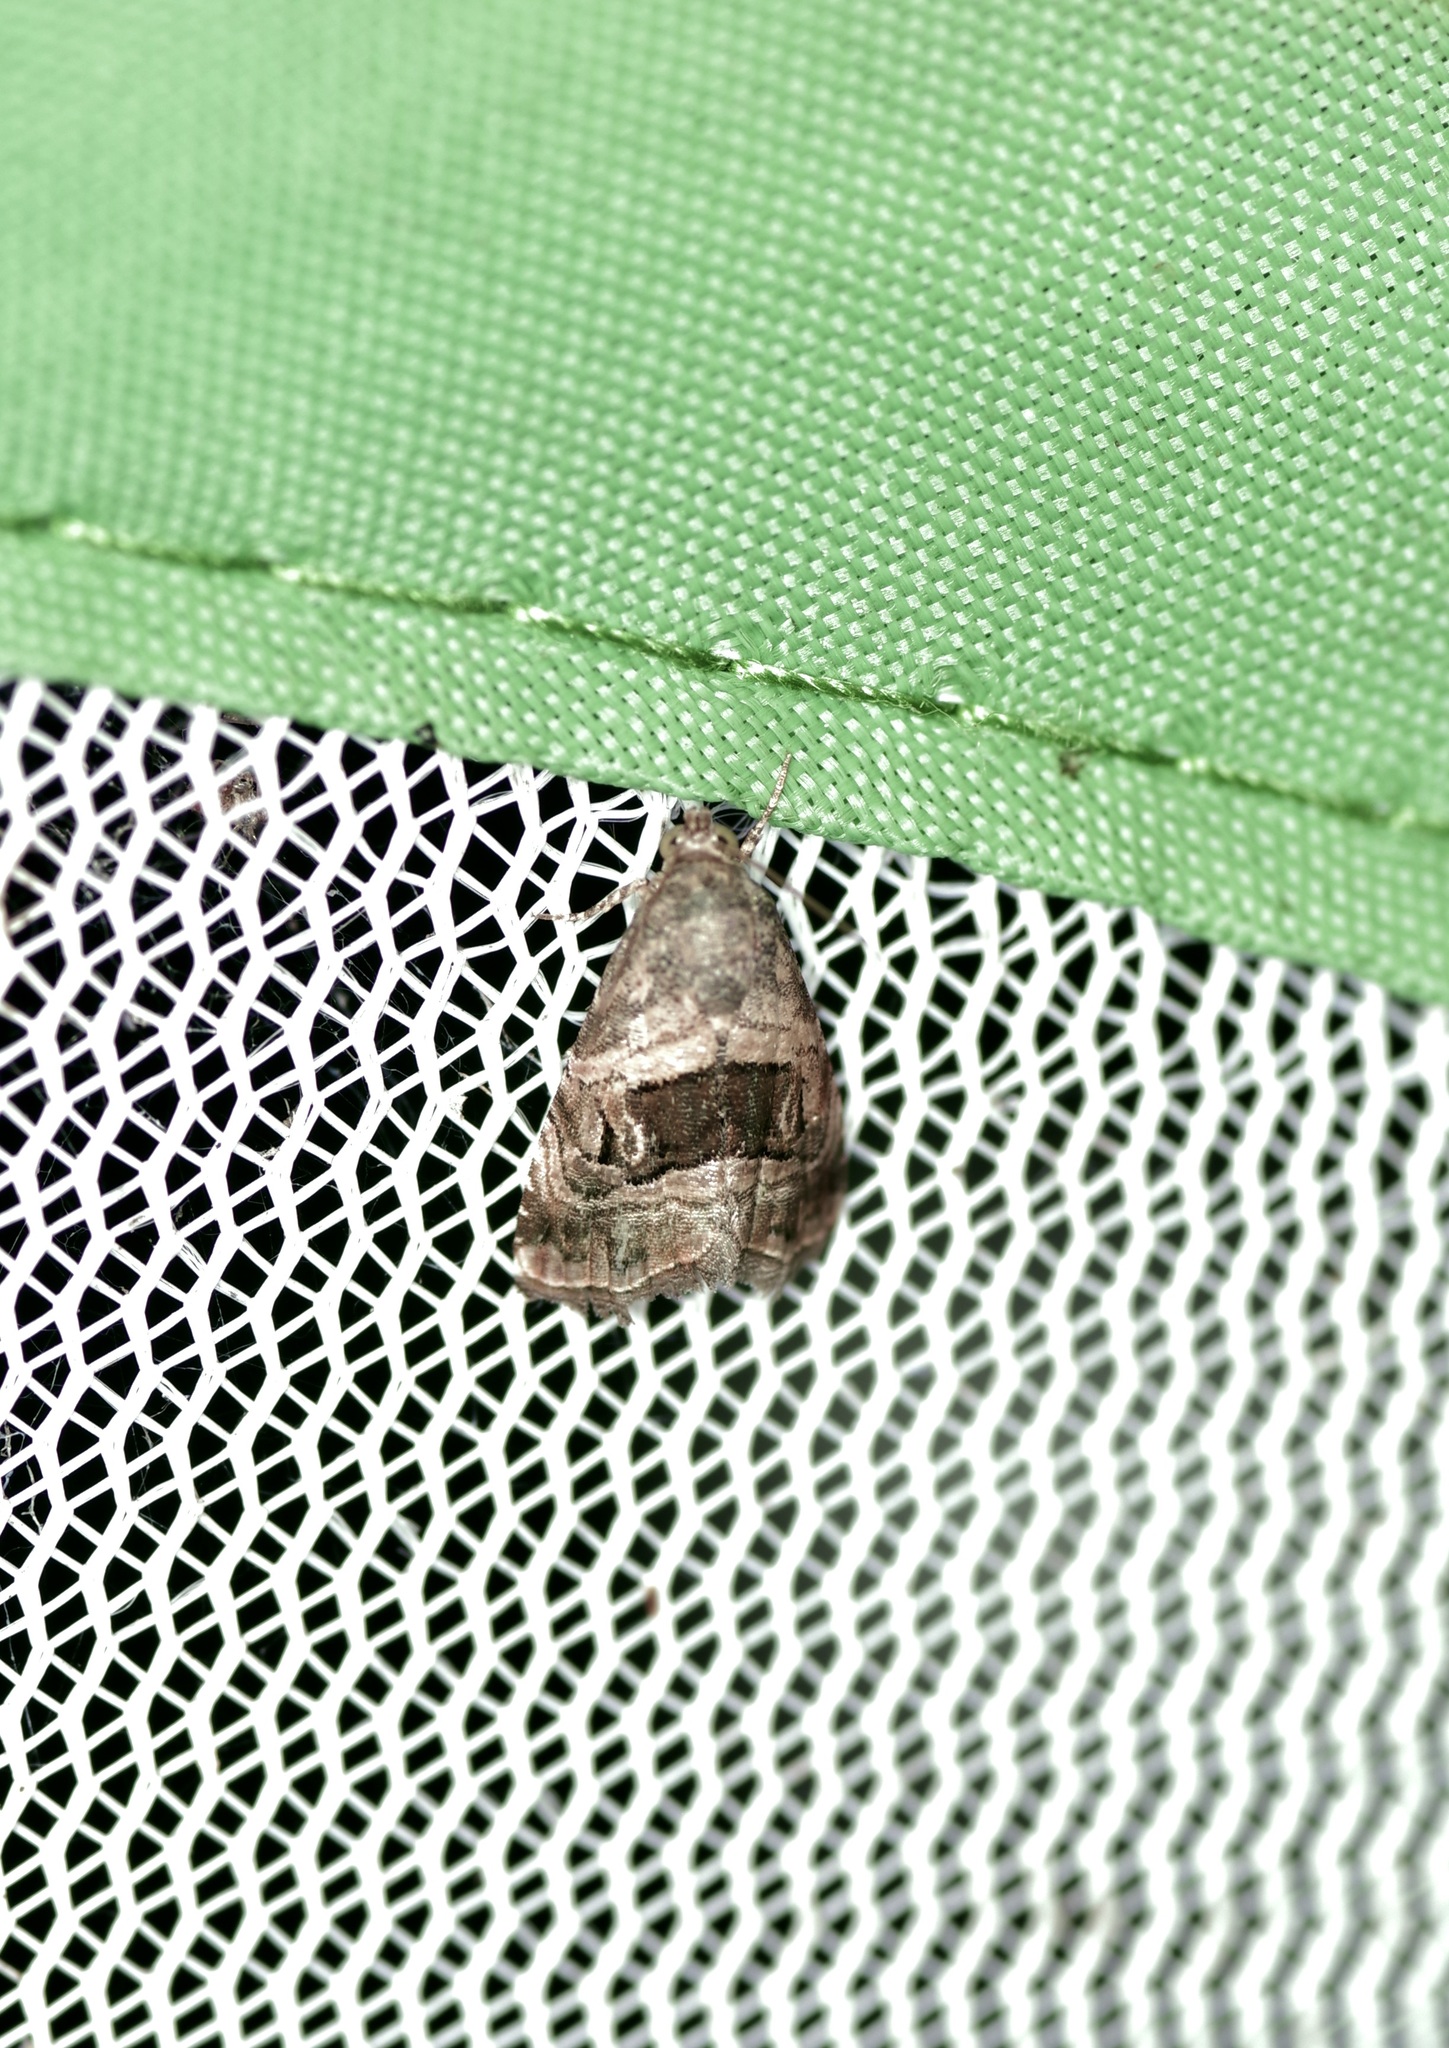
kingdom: Animalia
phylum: Arthropoda
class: Insecta
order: Lepidoptera
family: Noctuidae
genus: Tripudia
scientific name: Tripudia quadrifera
